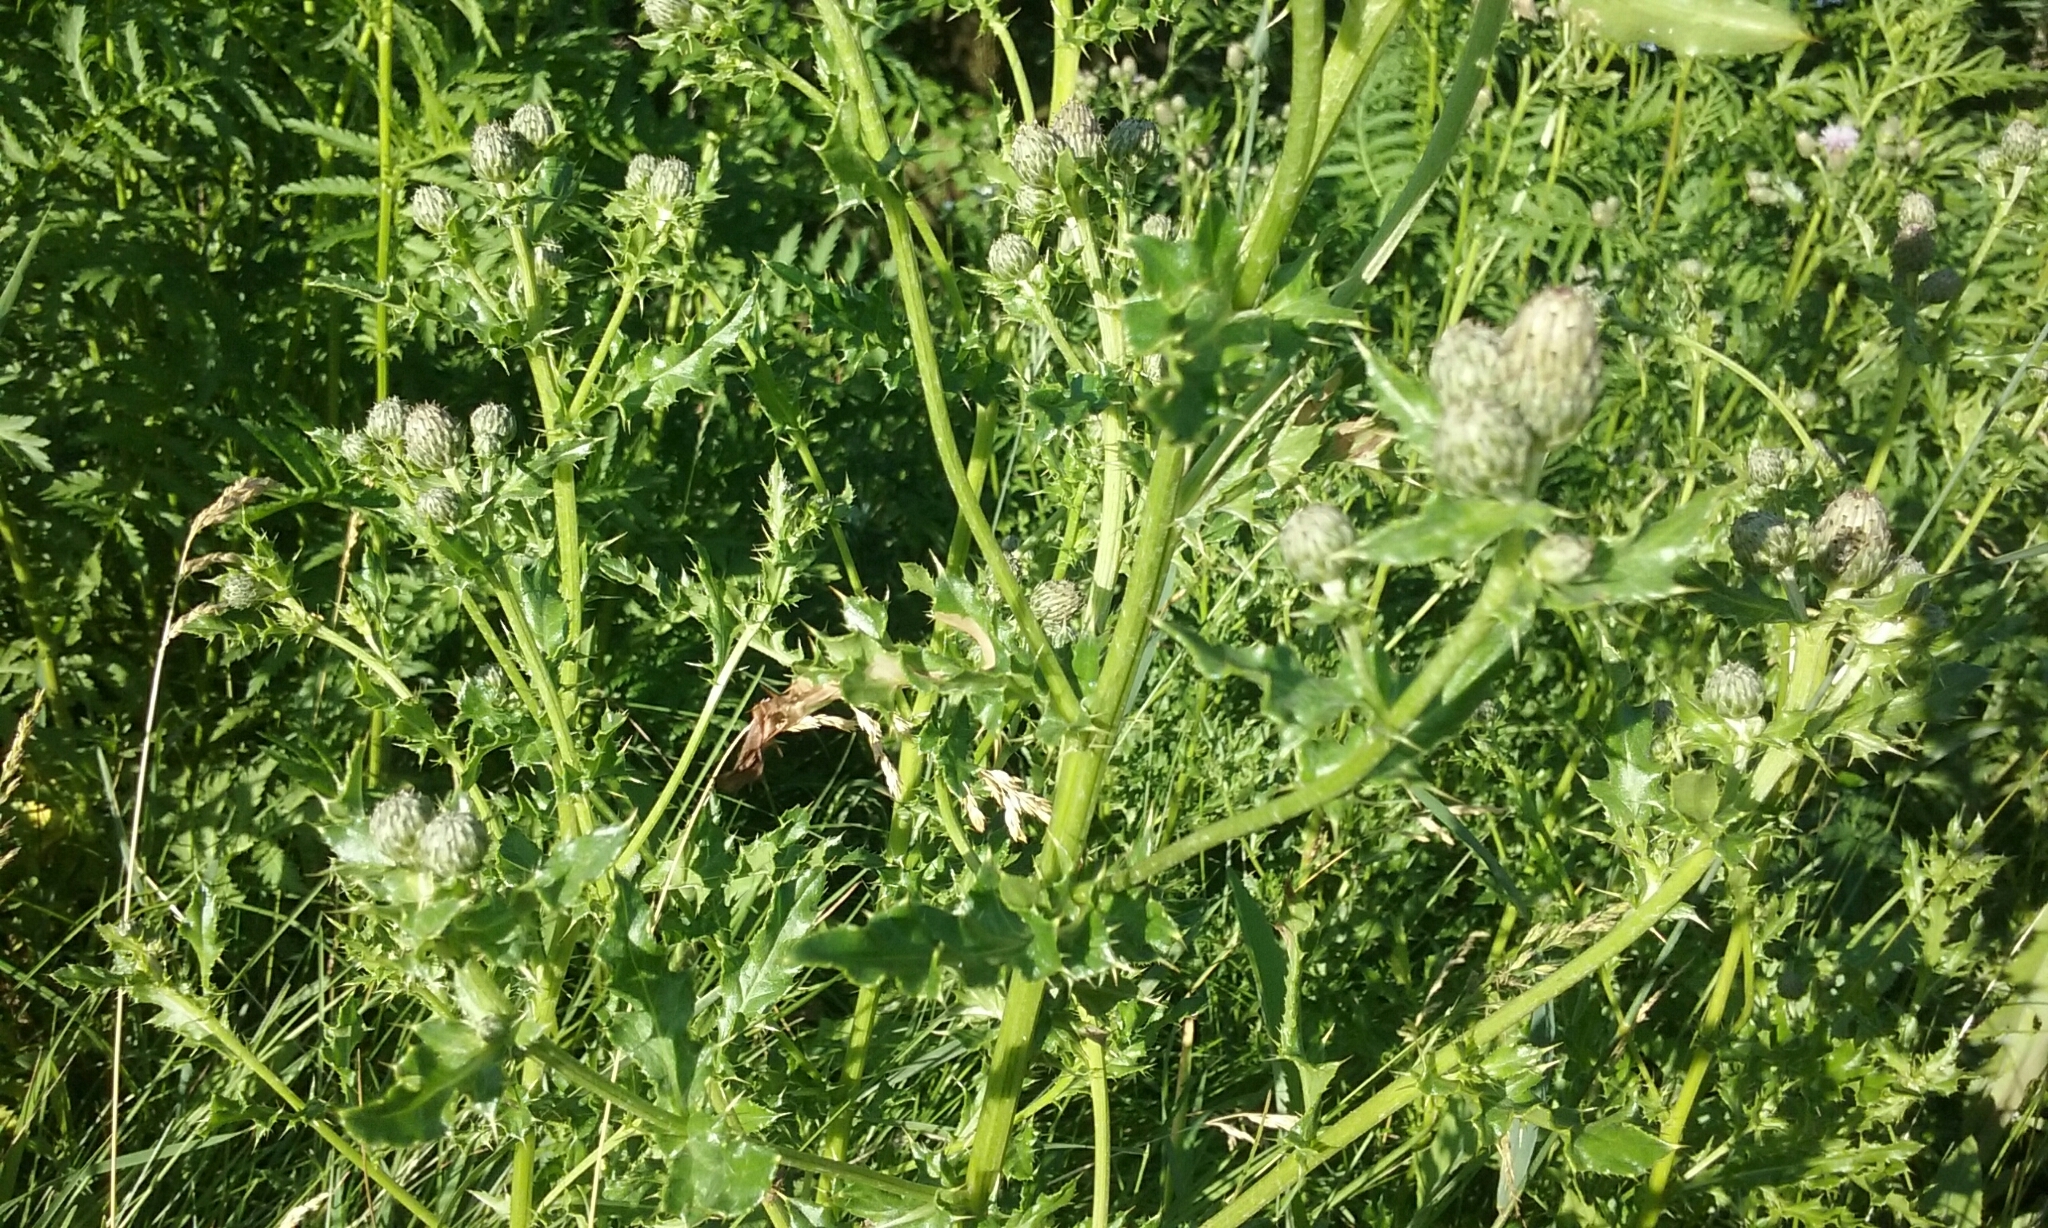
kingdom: Plantae
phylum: Tracheophyta
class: Magnoliopsida
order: Asterales
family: Asteraceae
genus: Cirsium
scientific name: Cirsium arvense
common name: Creeping thistle
